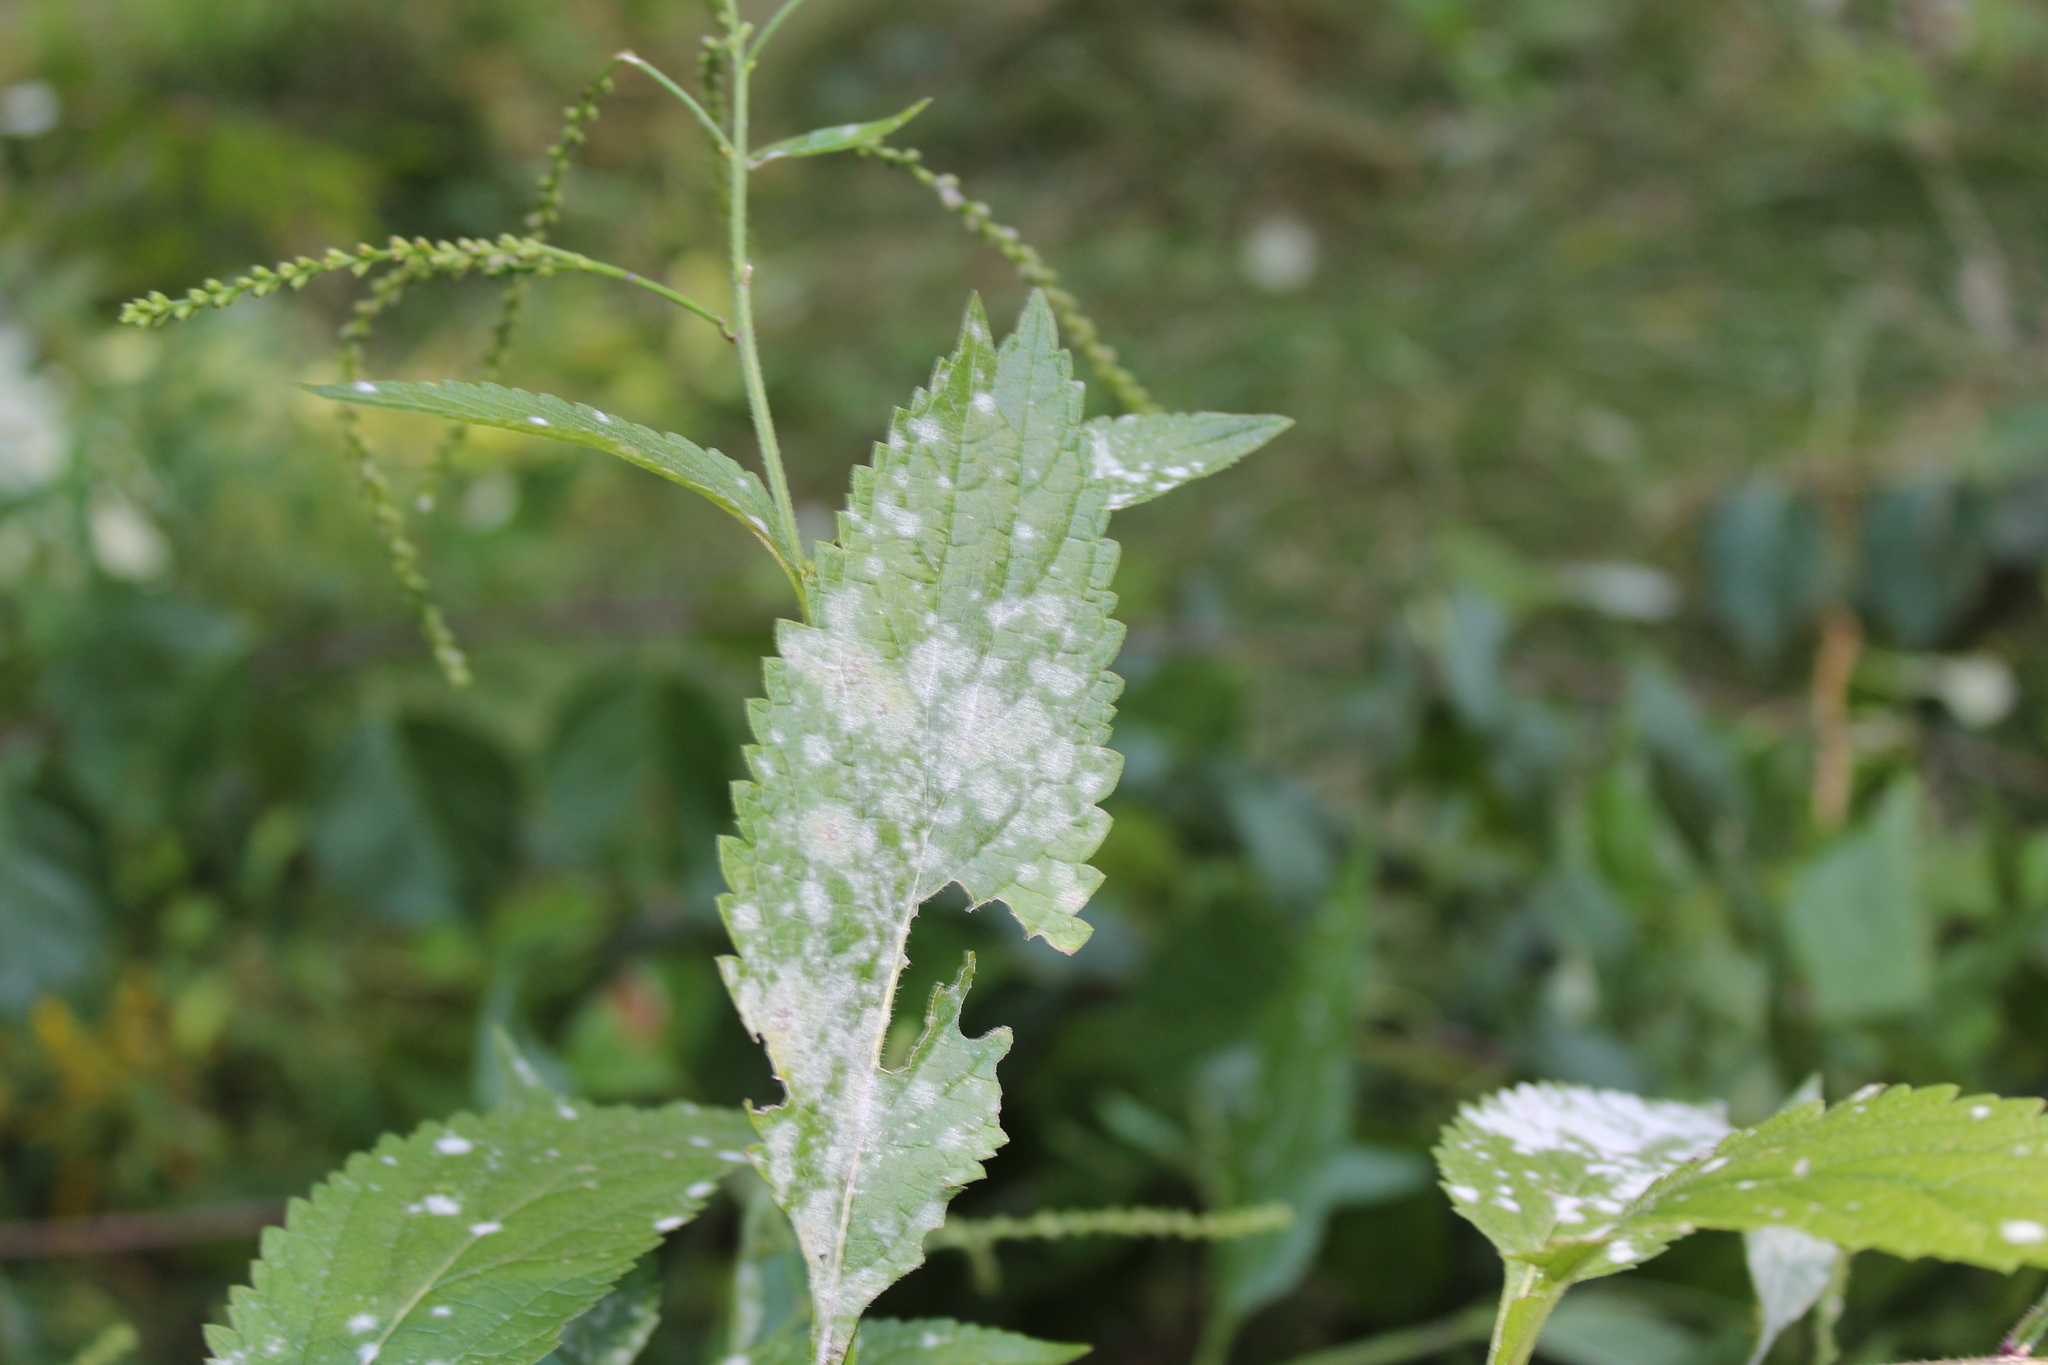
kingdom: Fungi
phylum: Ascomycota
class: Leotiomycetes
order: Helotiales
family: Erysiphaceae
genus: Golovinomyces
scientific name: Golovinomyces verbenae
